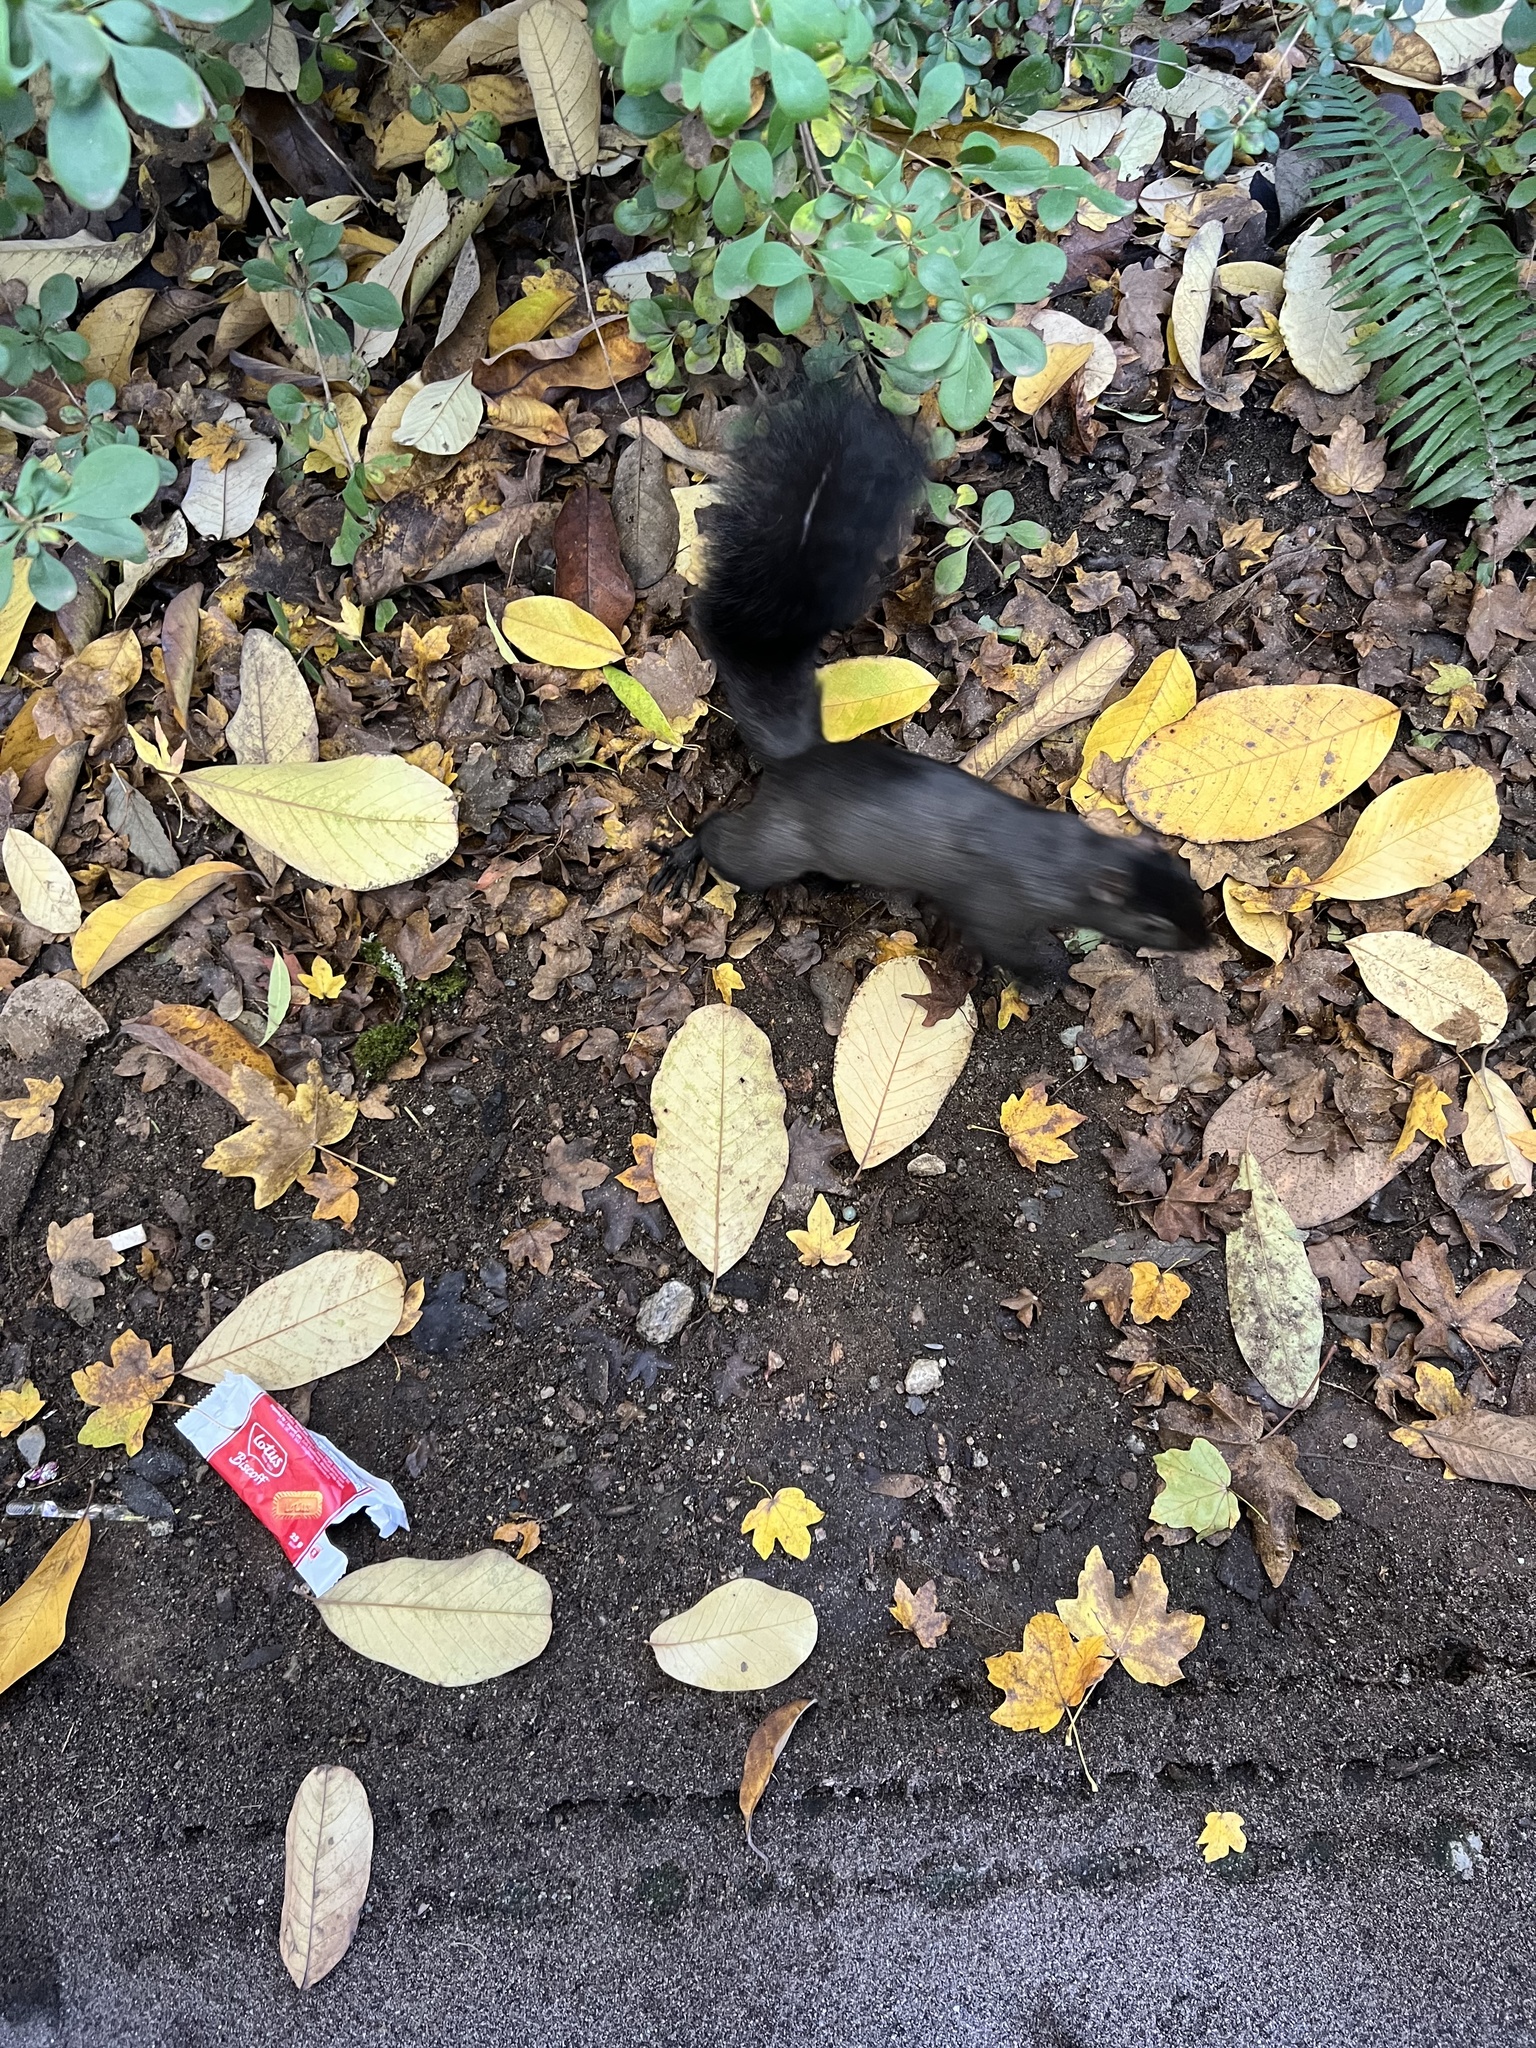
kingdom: Animalia
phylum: Chordata
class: Mammalia
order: Rodentia
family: Sciuridae
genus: Sciurus
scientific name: Sciurus carolinensis
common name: Eastern gray squirrel
